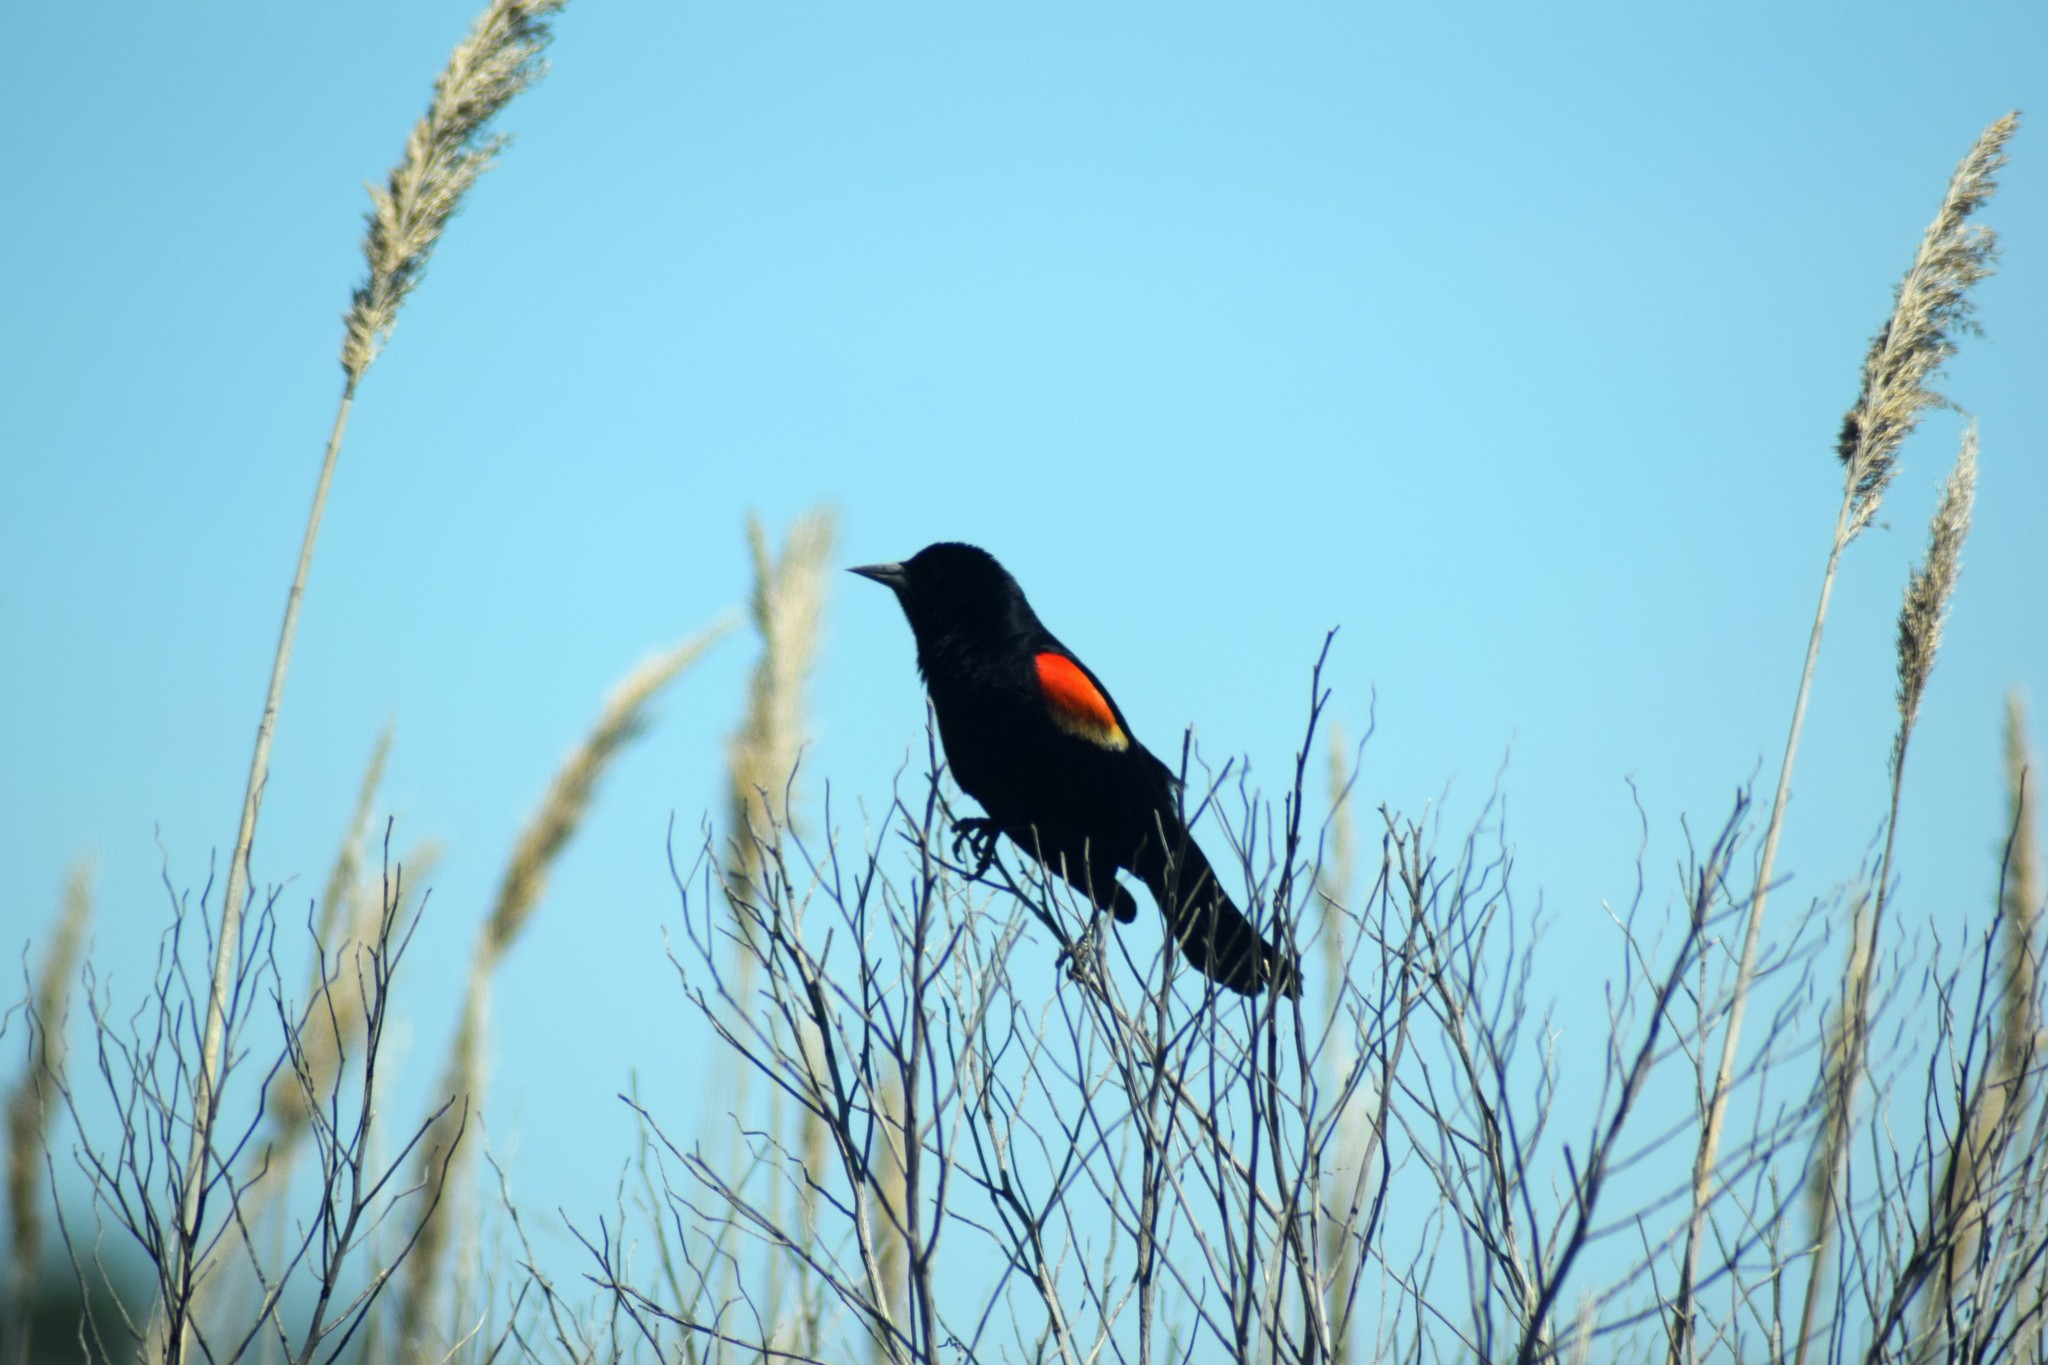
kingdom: Animalia
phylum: Chordata
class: Aves
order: Passeriformes
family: Icteridae
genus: Agelaius
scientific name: Agelaius phoeniceus
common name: Red-winged blackbird
